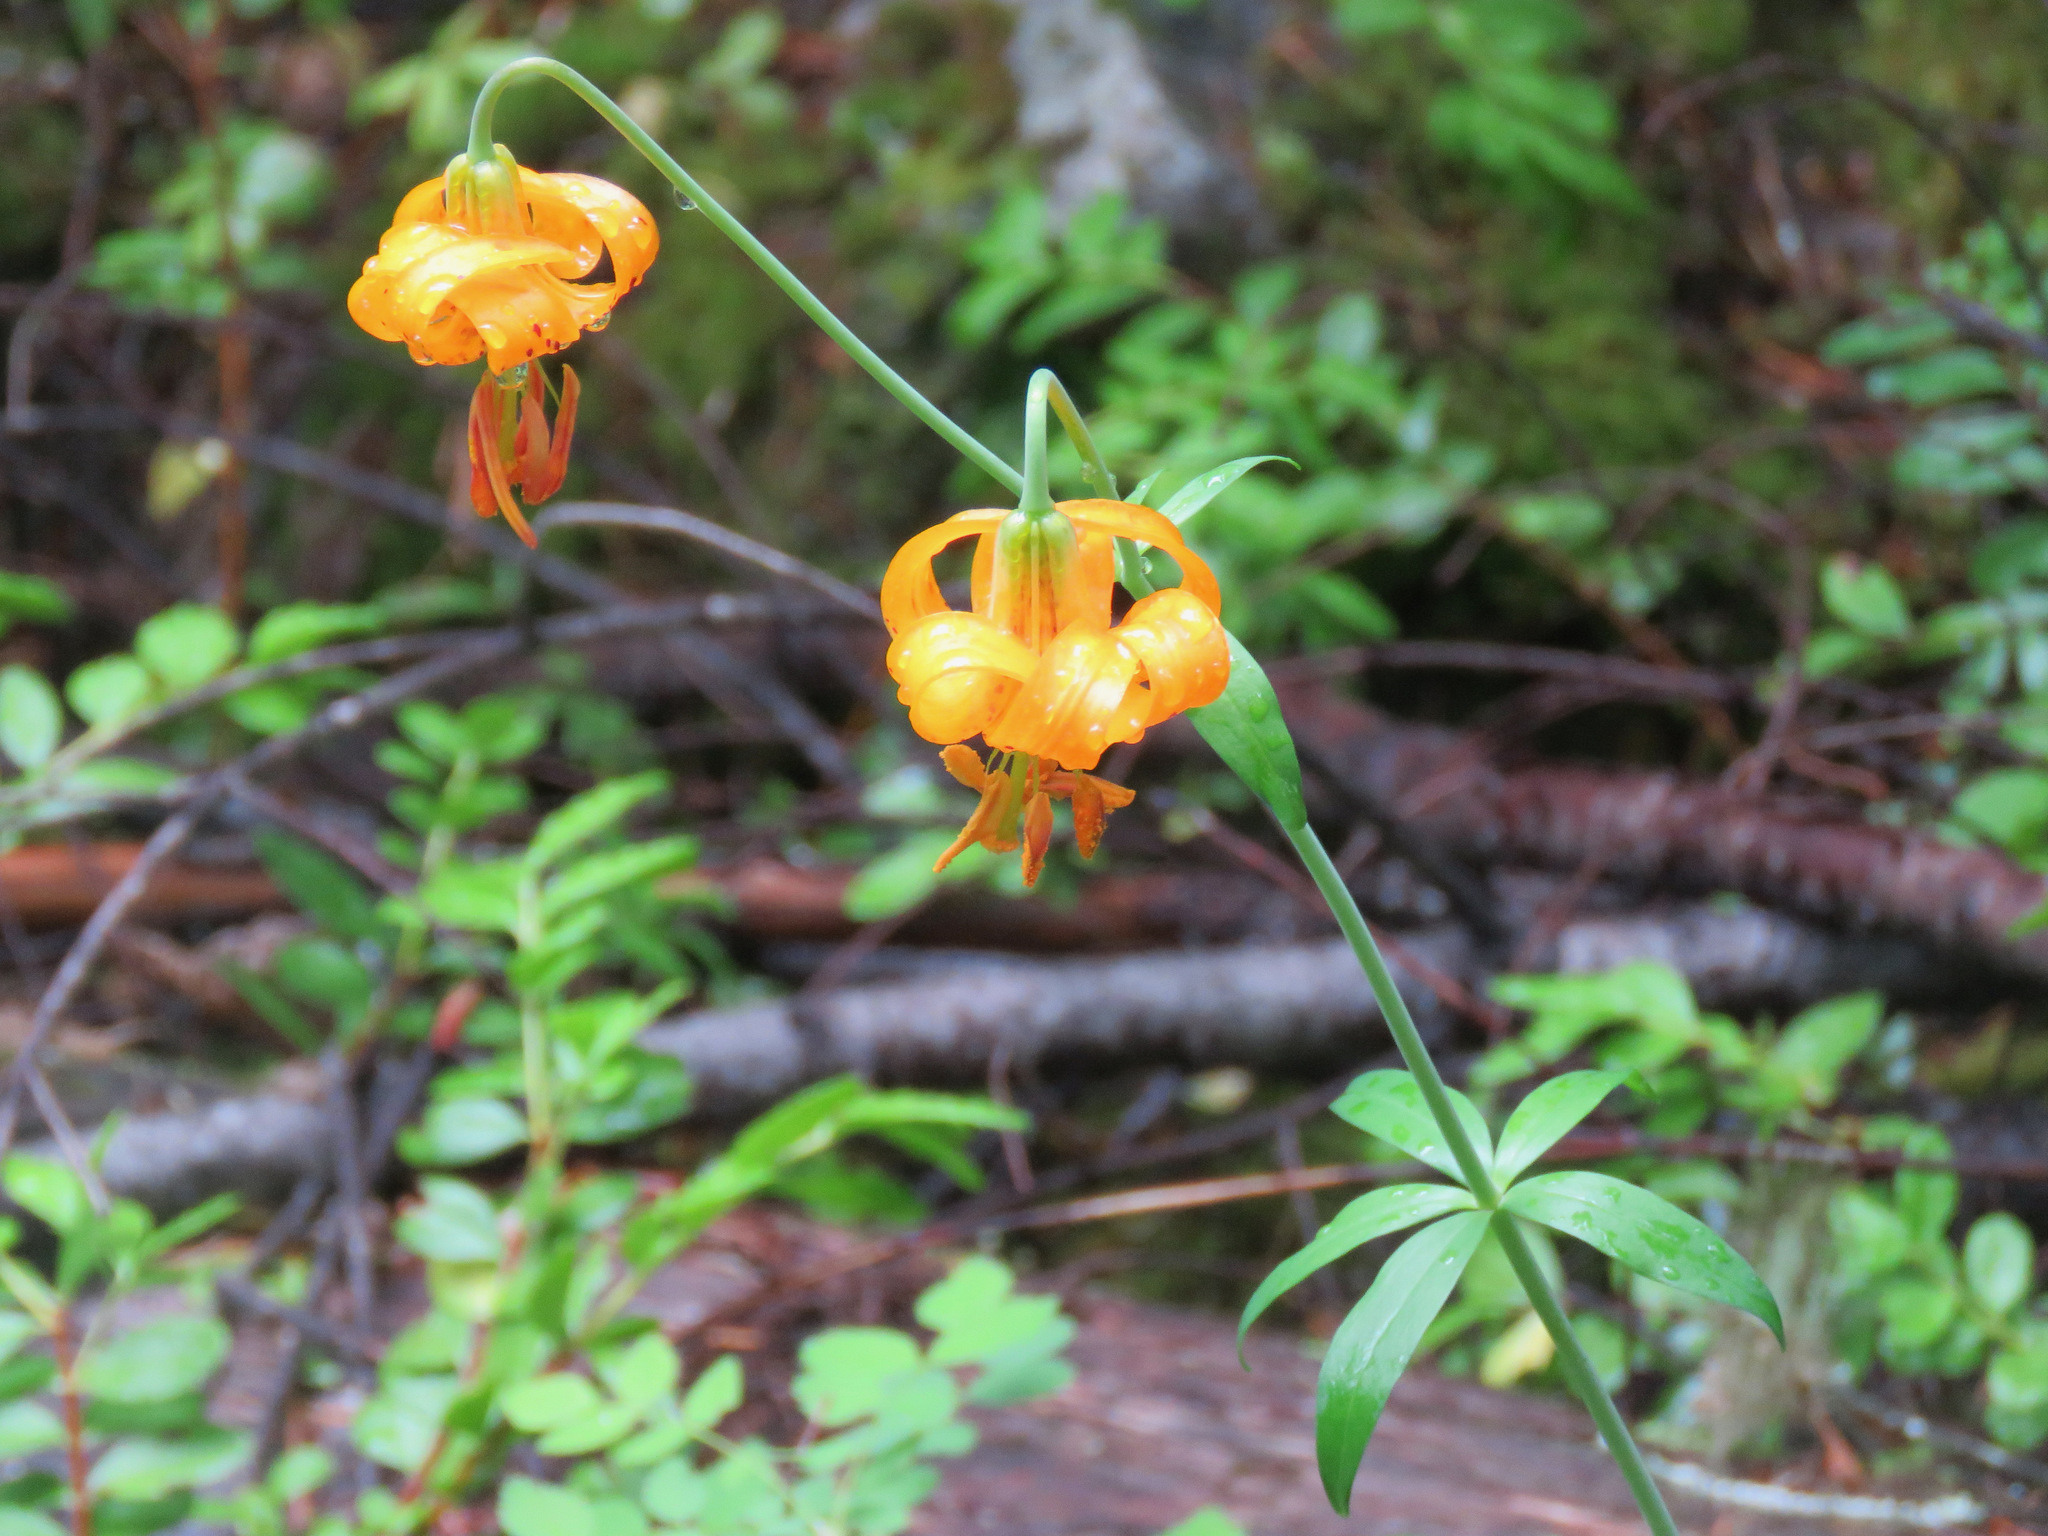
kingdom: Plantae
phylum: Tracheophyta
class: Liliopsida
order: Liliales
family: Liliaceae
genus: Lilium
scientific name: Lilium columbianum
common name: Columbia lily
